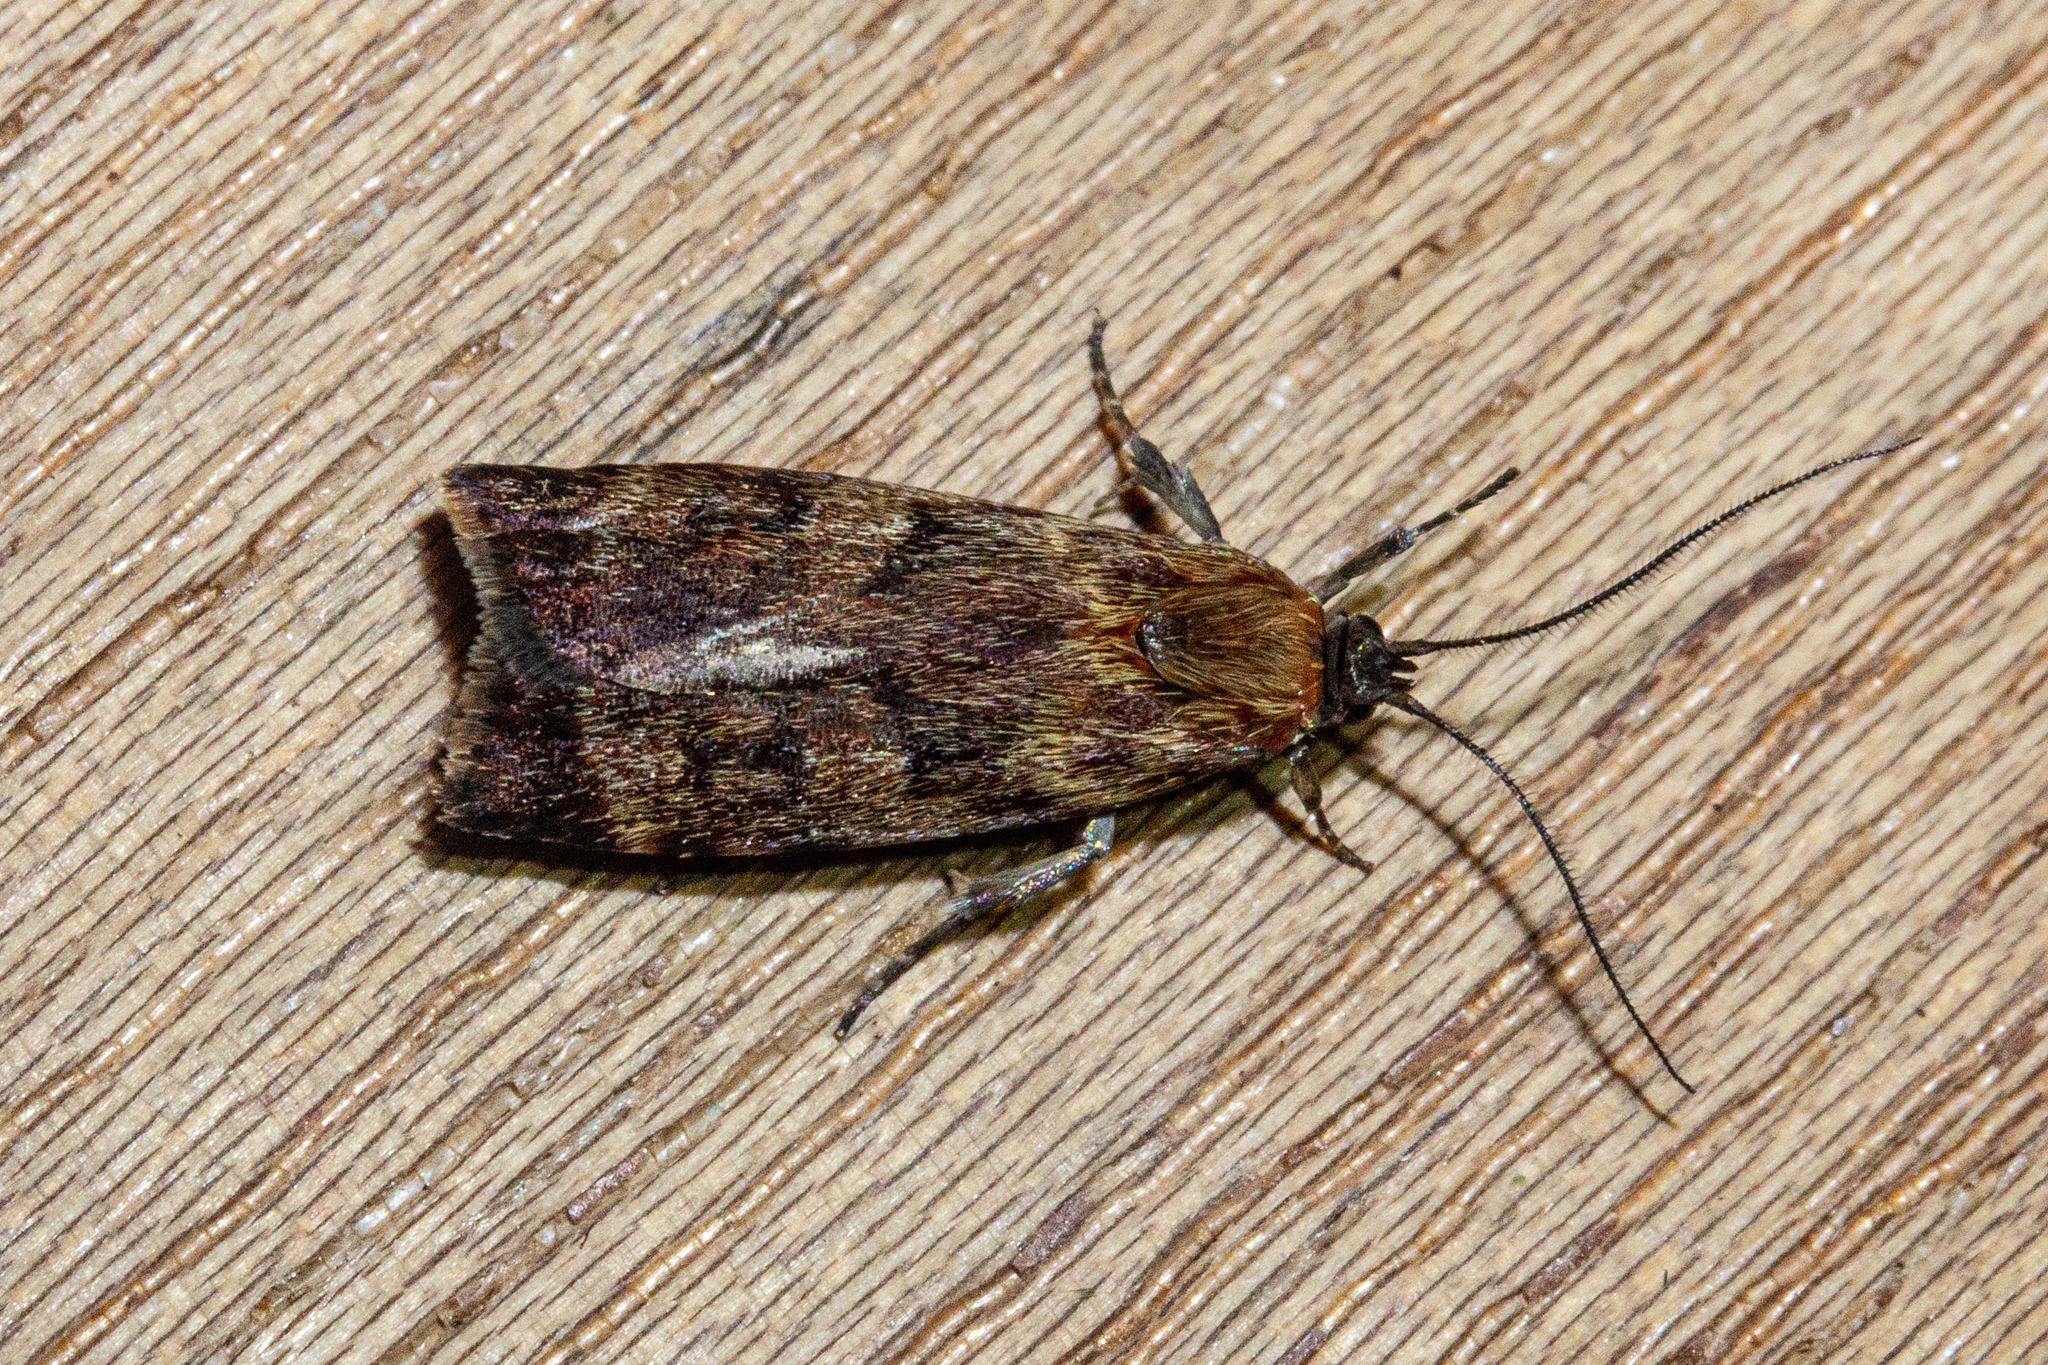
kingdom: Animalia
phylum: Arthropoda
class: Insecta
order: Lepidoptera
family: Oecophoridae
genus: Hierodoris
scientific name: Hierodoris
